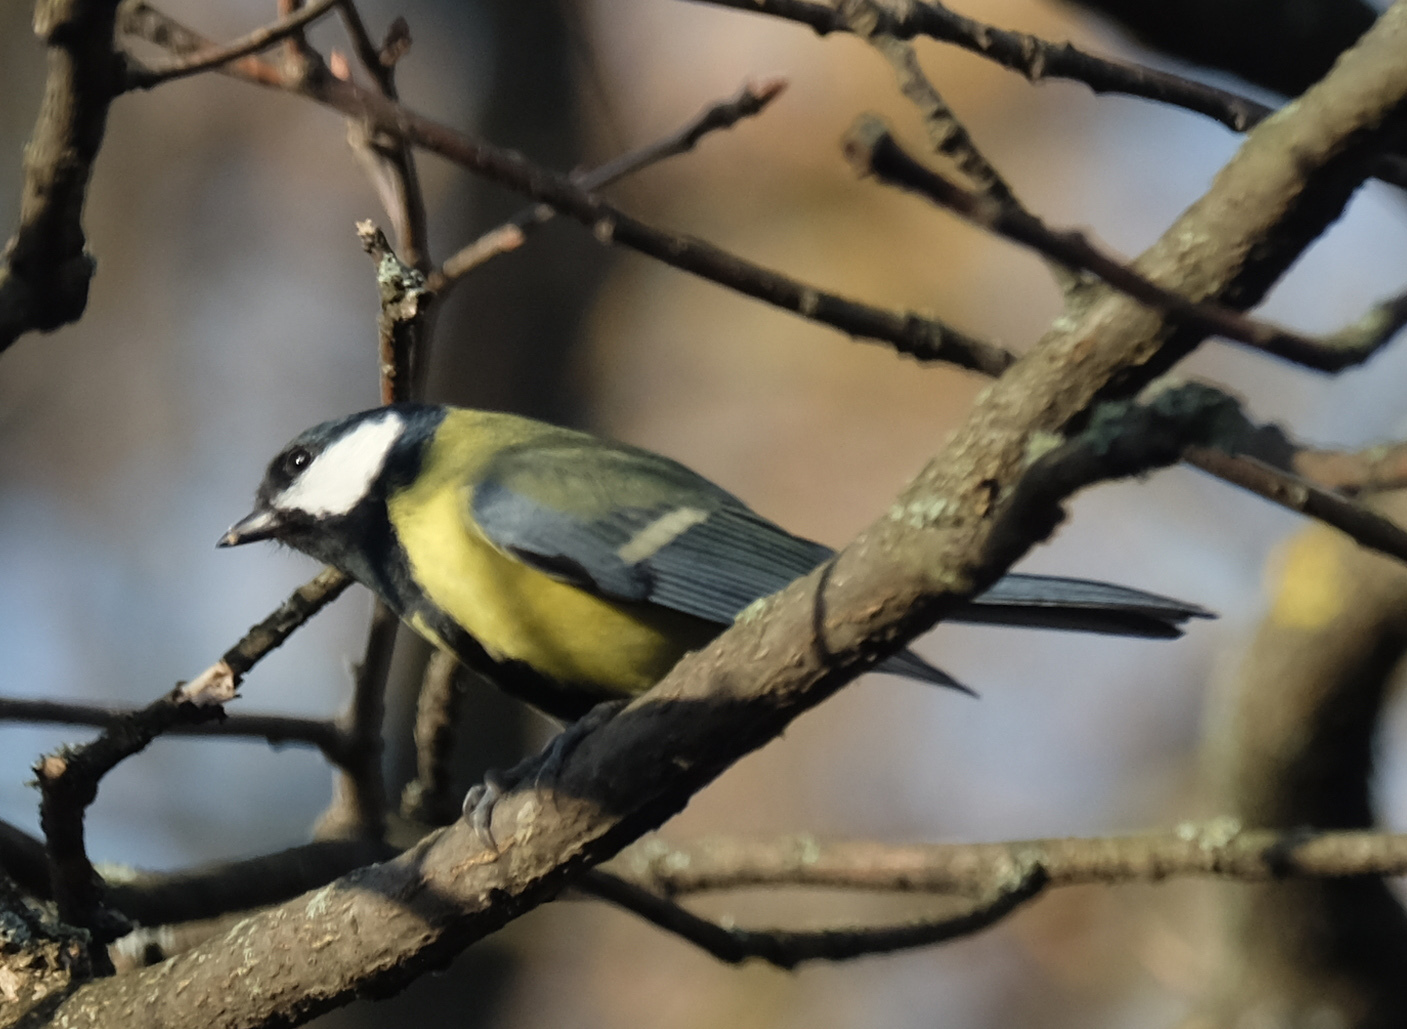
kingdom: Animalia
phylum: Chordata
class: Aves
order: Passeriformes
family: Paridae
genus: Parus
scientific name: Parus major
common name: Great tit
